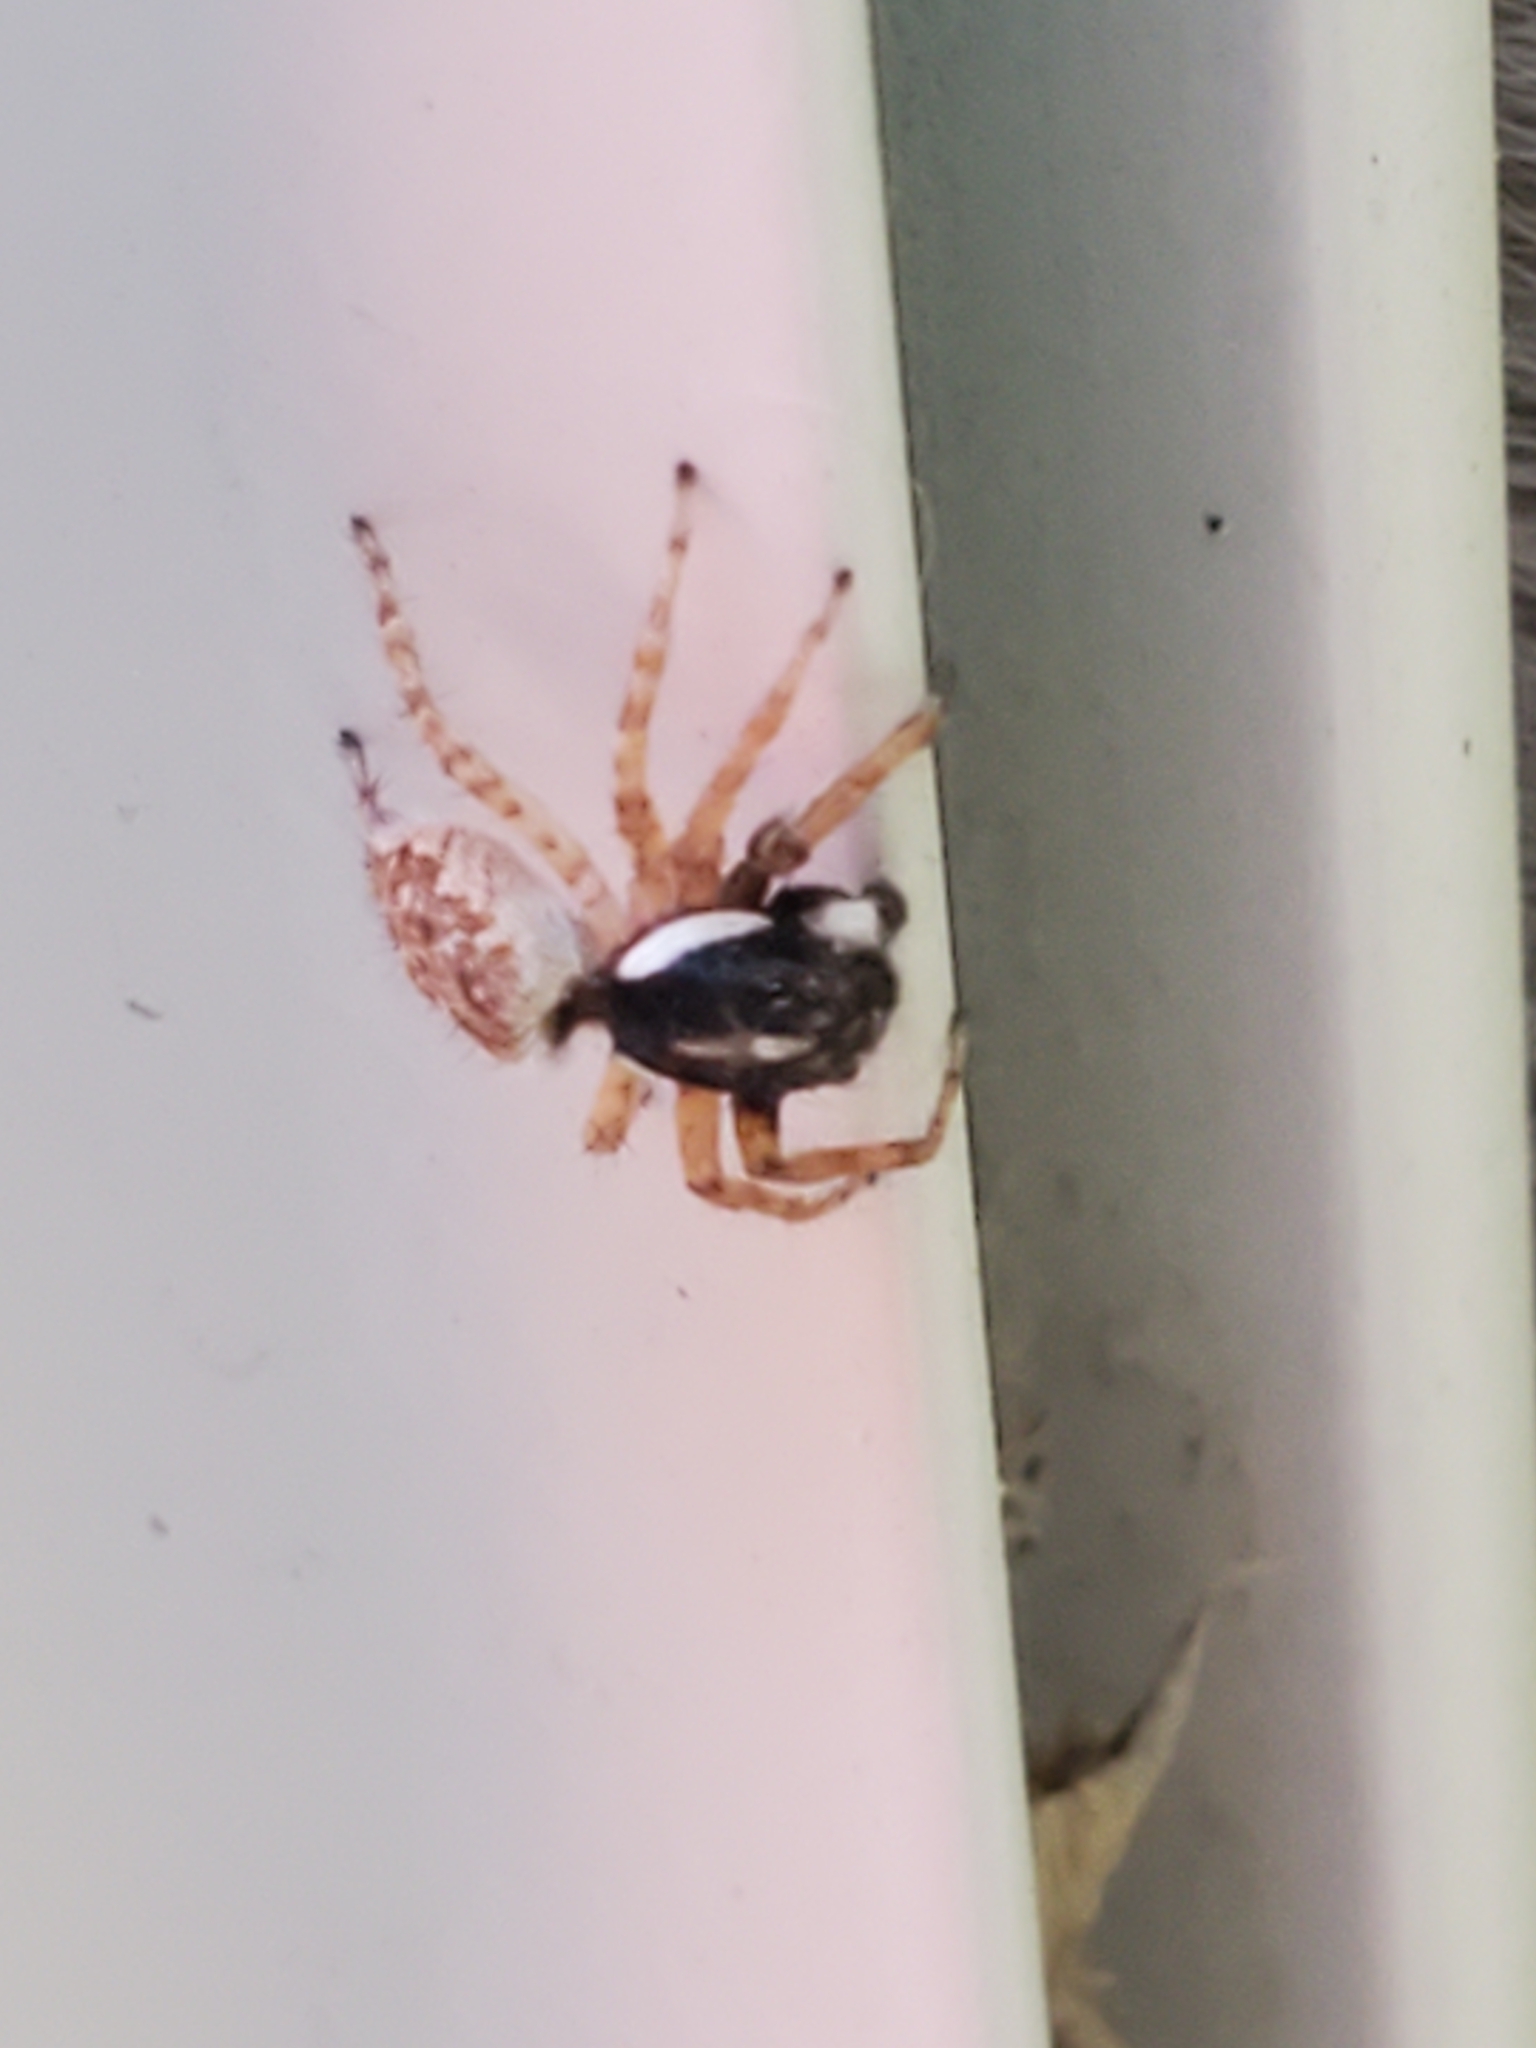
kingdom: Animalia
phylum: Arthropoda
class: Arachnida
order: Araneae
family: Salticidae
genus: Menemerus
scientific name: Menemerus semilimbatus
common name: Jumping spider
